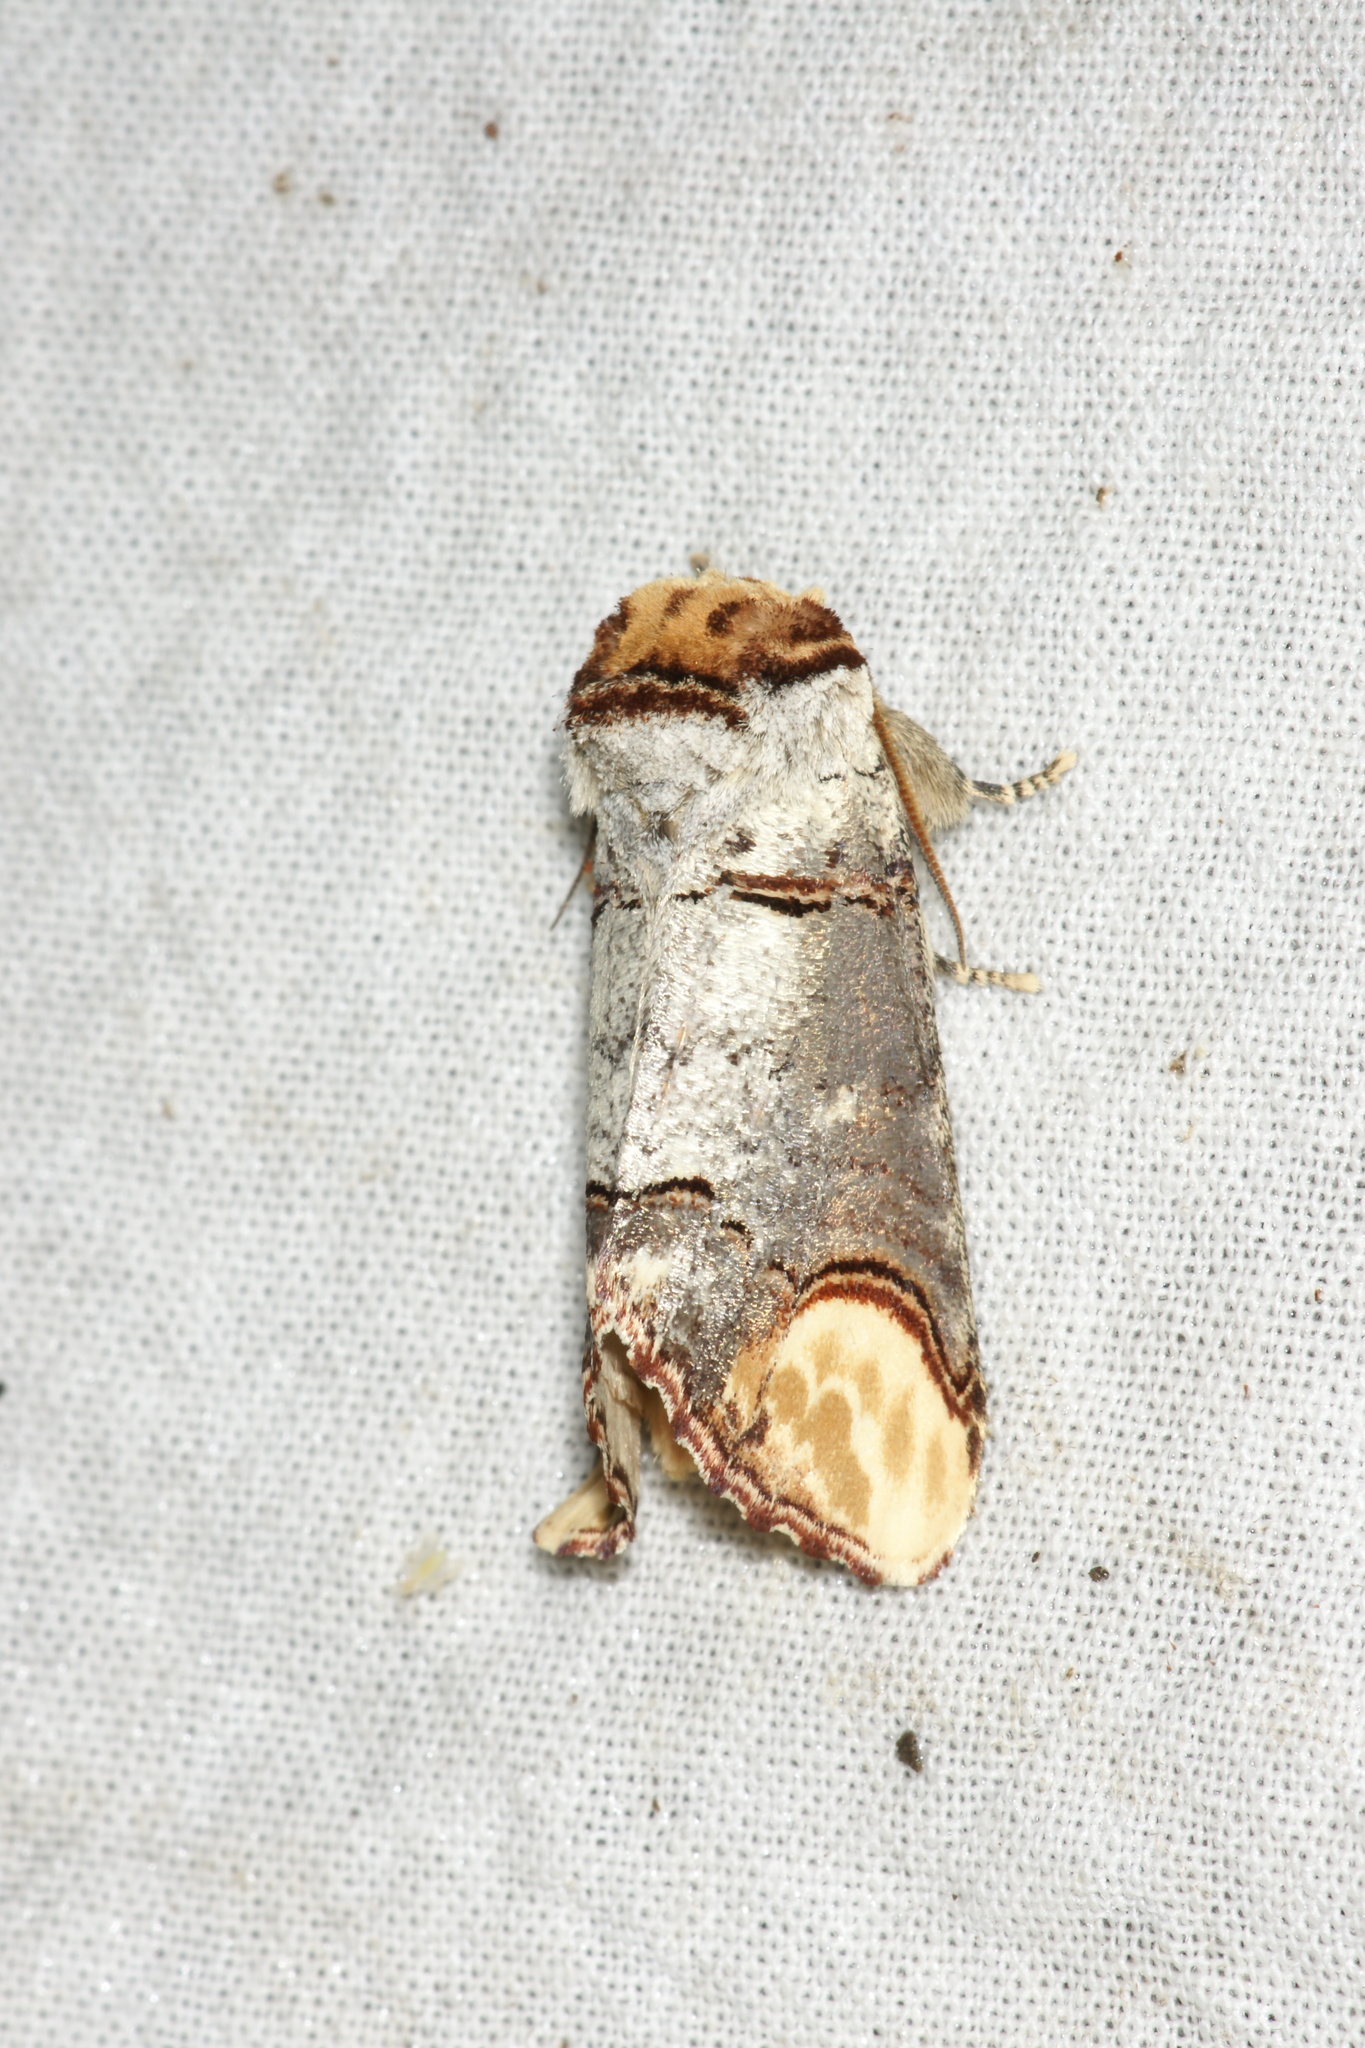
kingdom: Animalia
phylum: Arthropoda
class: Insecta
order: Lepidoptera
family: Notodontidae
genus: Phalera
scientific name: Phalera bucephala
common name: Buff-tip
